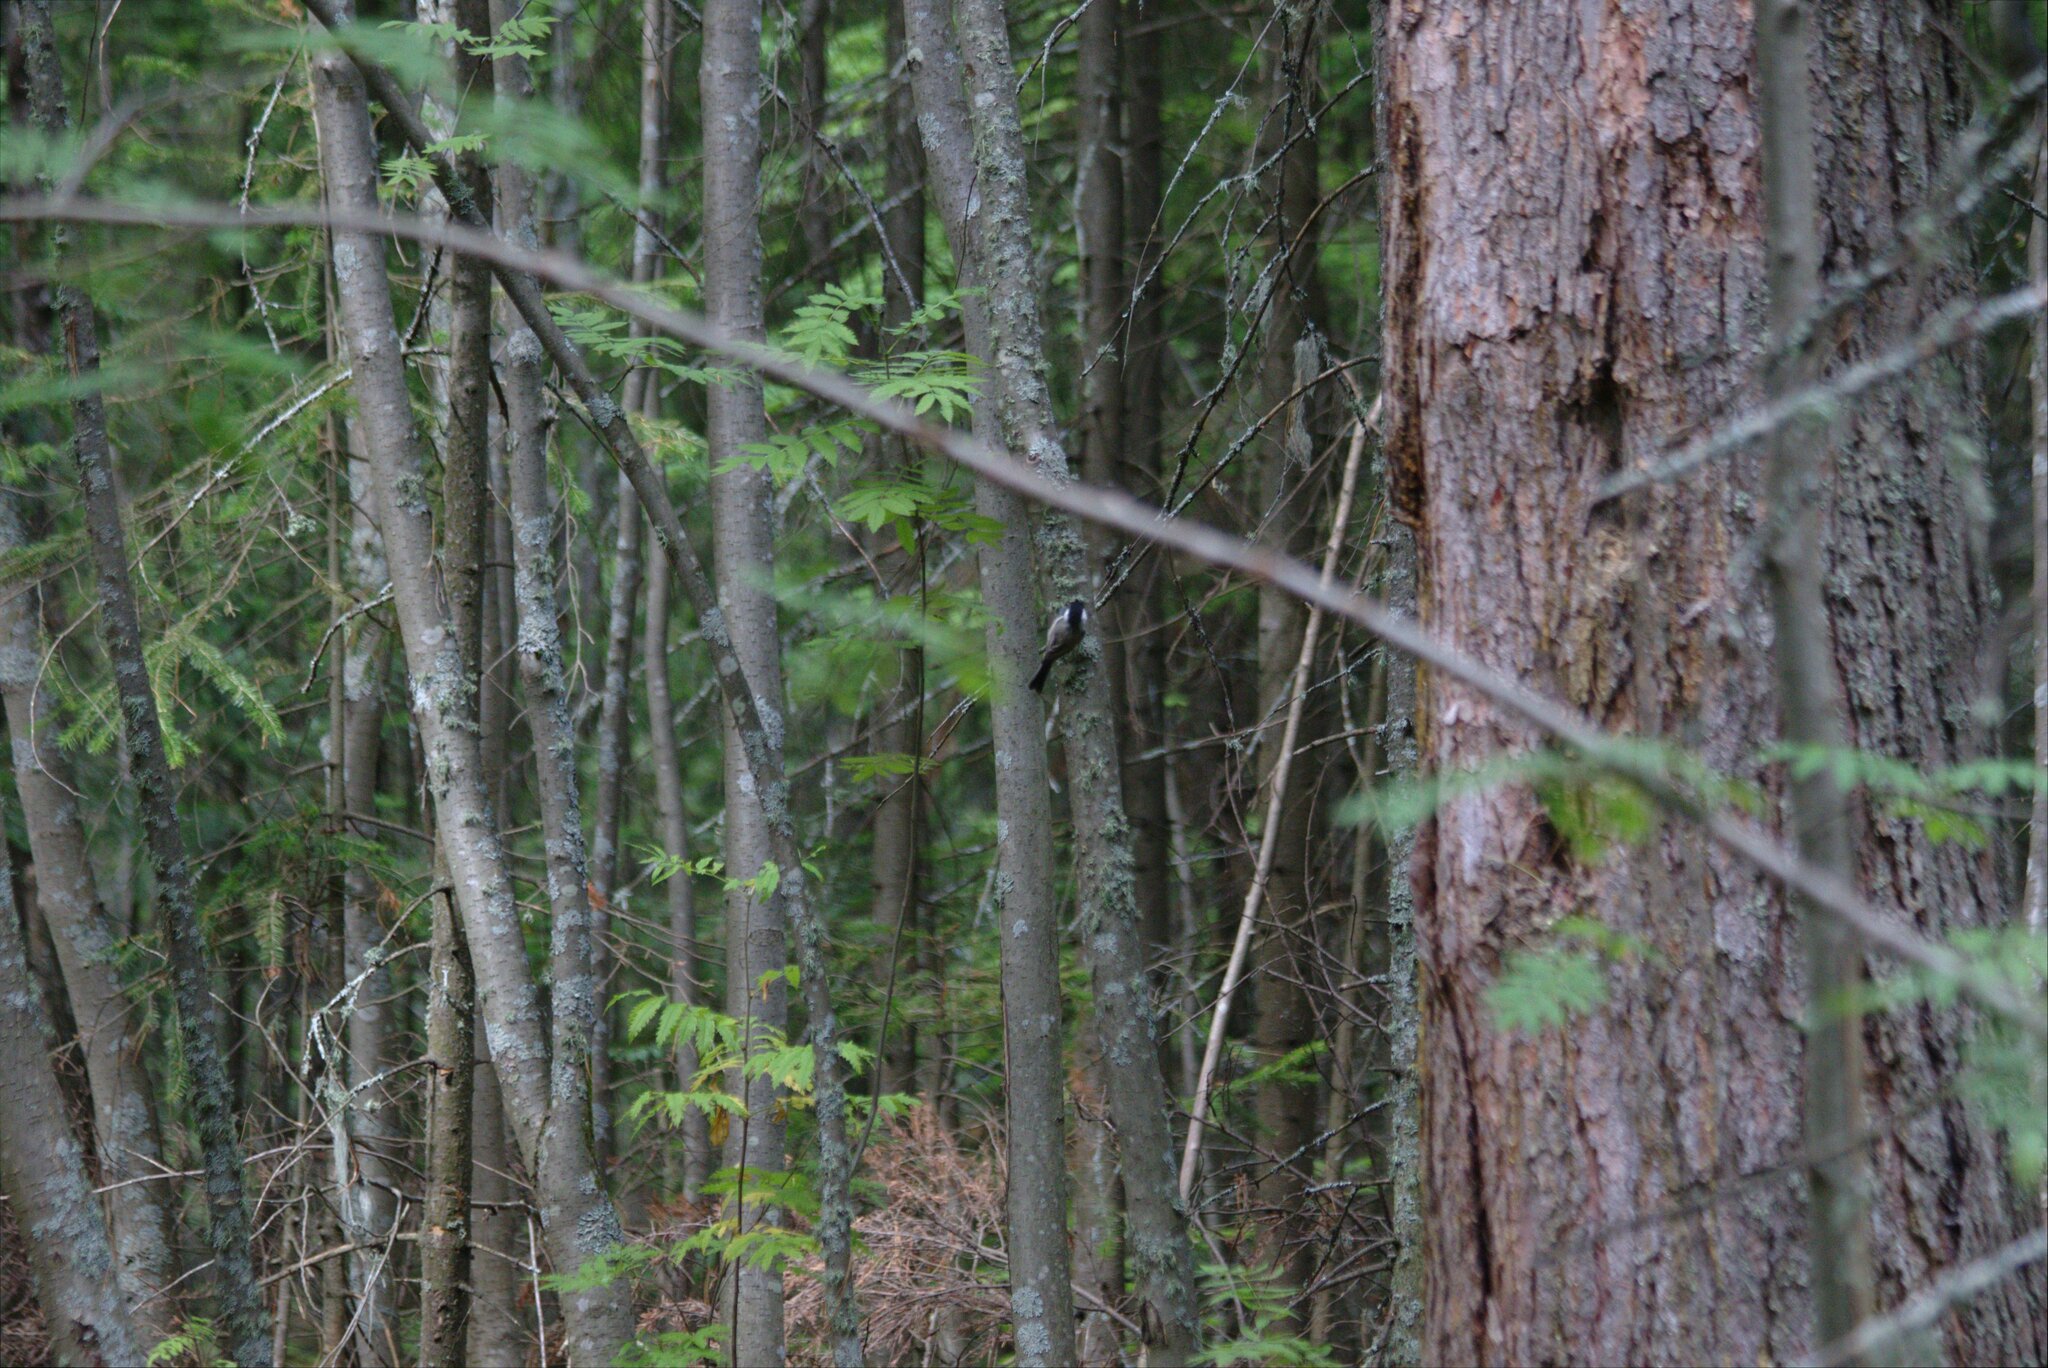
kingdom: Animalia
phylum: Chordata
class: Aves
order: Passeriformes
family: Paridae
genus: Poecile
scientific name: Poecile montanus
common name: Willow tit
